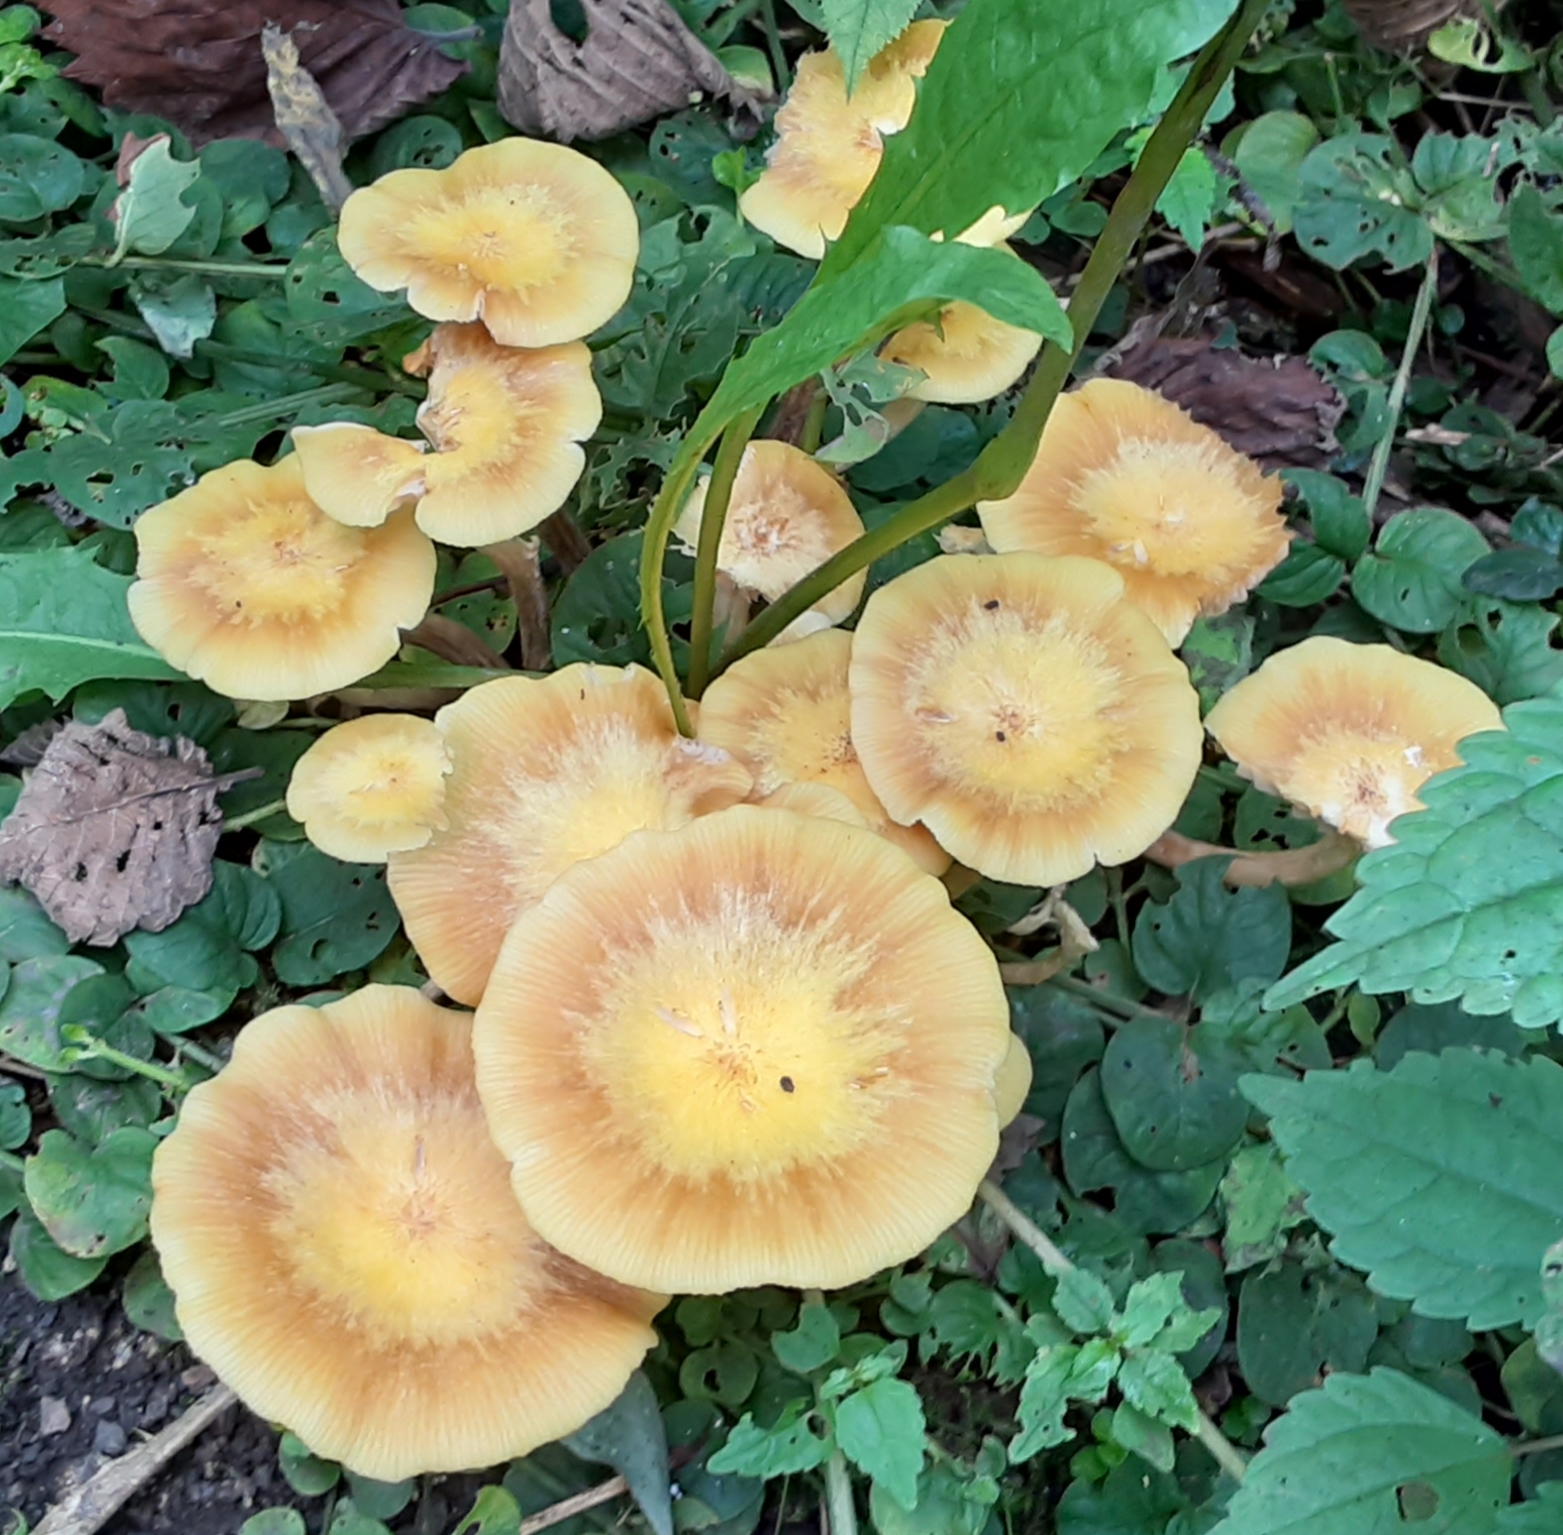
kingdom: Fungi
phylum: Basidiomycota
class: Agaricomycetes
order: Agaricales
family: Physalacriaceae
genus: Desarmillaria
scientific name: Desarmillaria caespitosa
